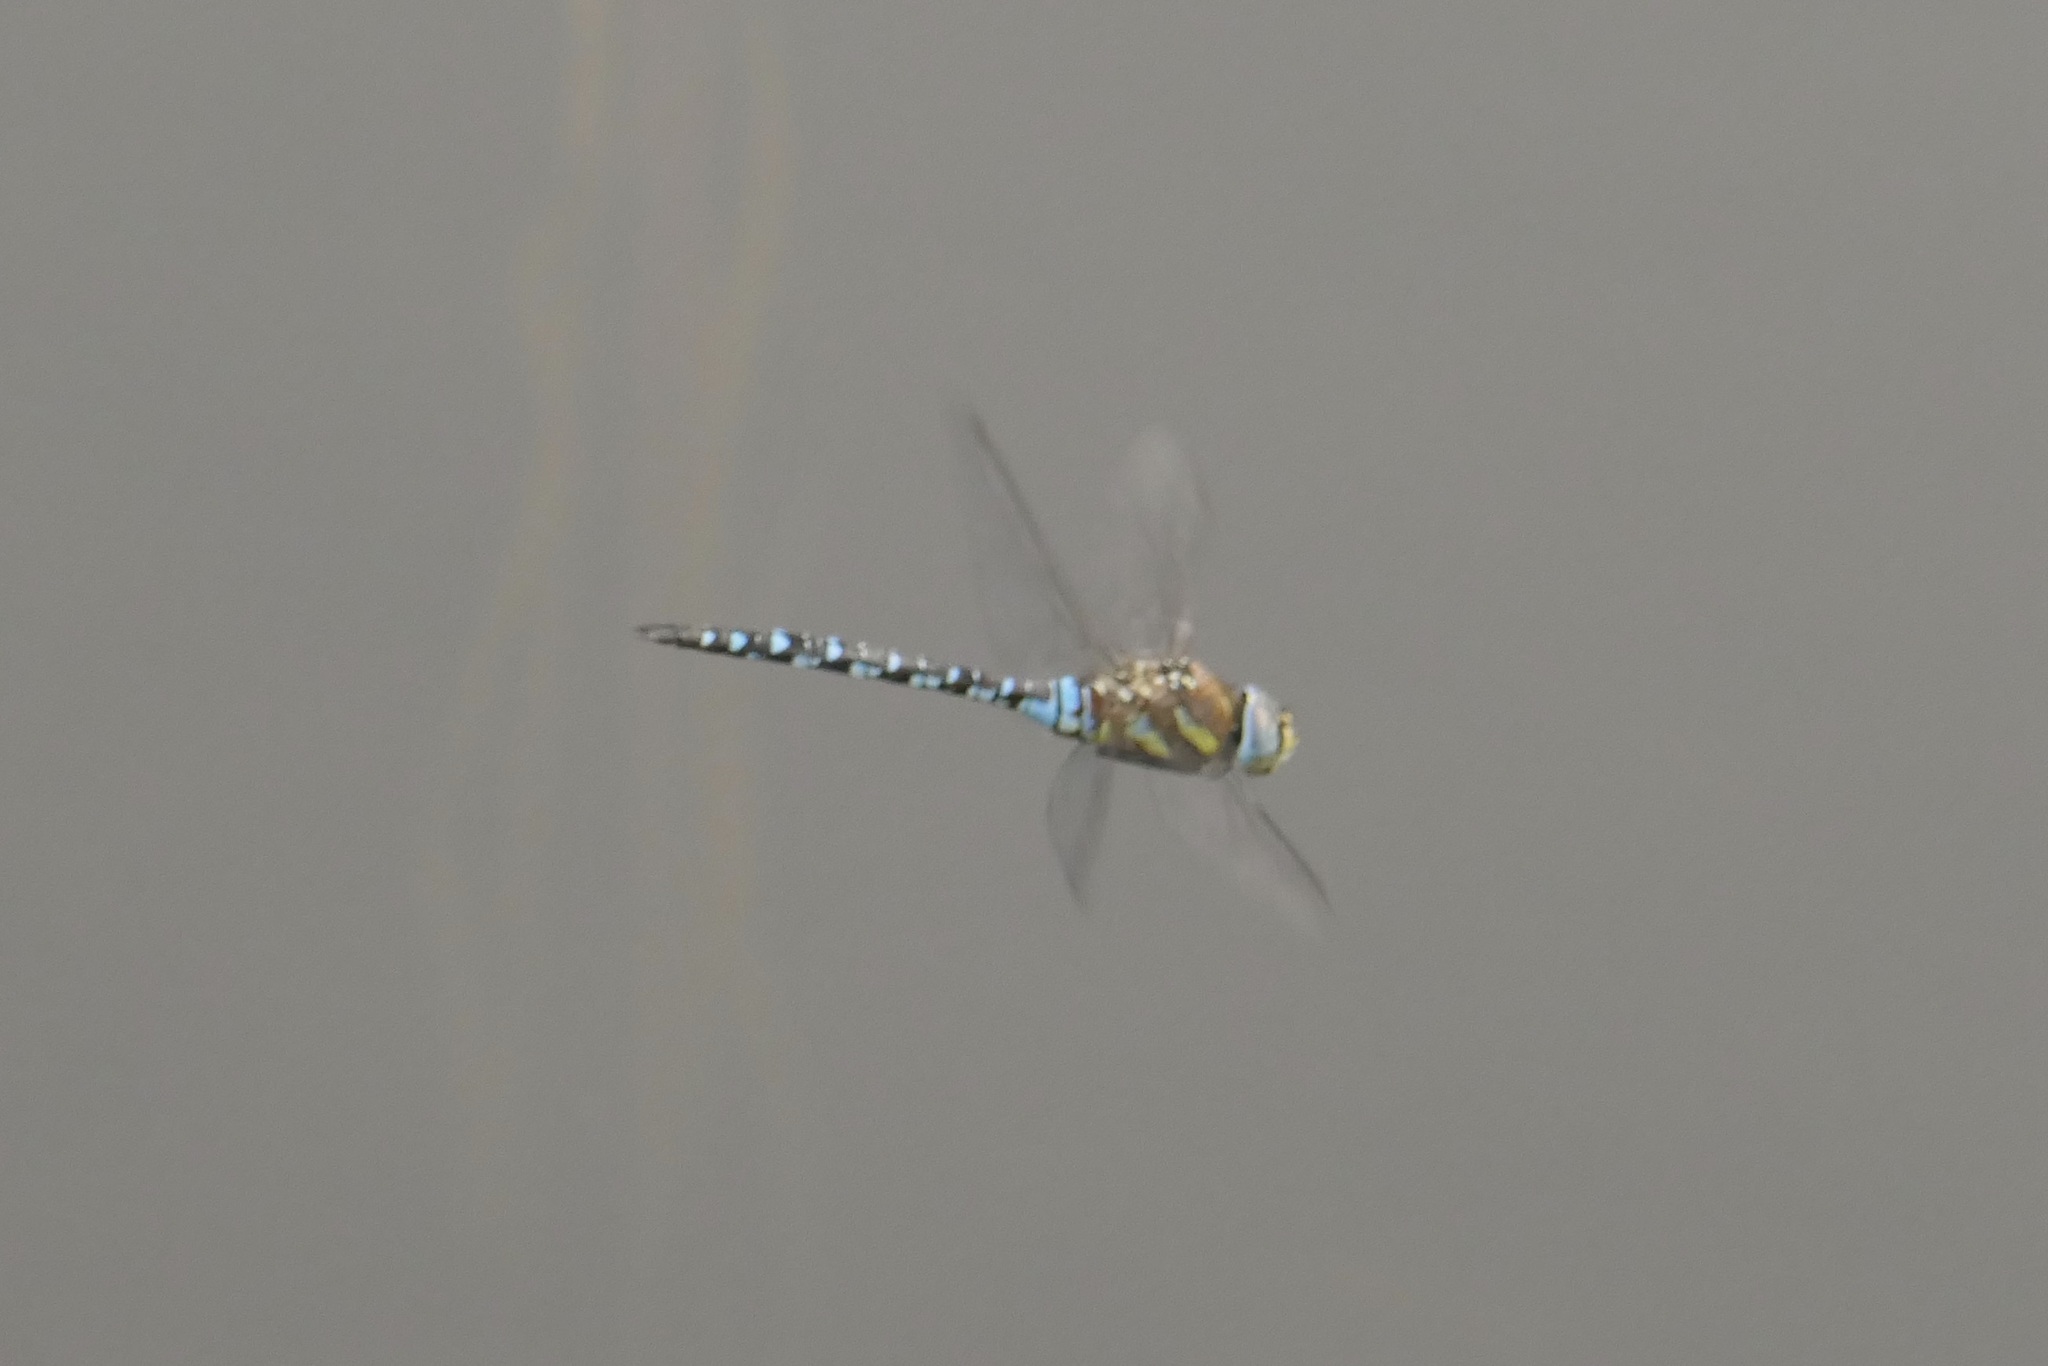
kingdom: Animalia
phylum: Arthropoda
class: Insecta
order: Odonata
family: Aeshnidae
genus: Aeshna
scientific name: Aeshna mixta
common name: Migrant hawker
